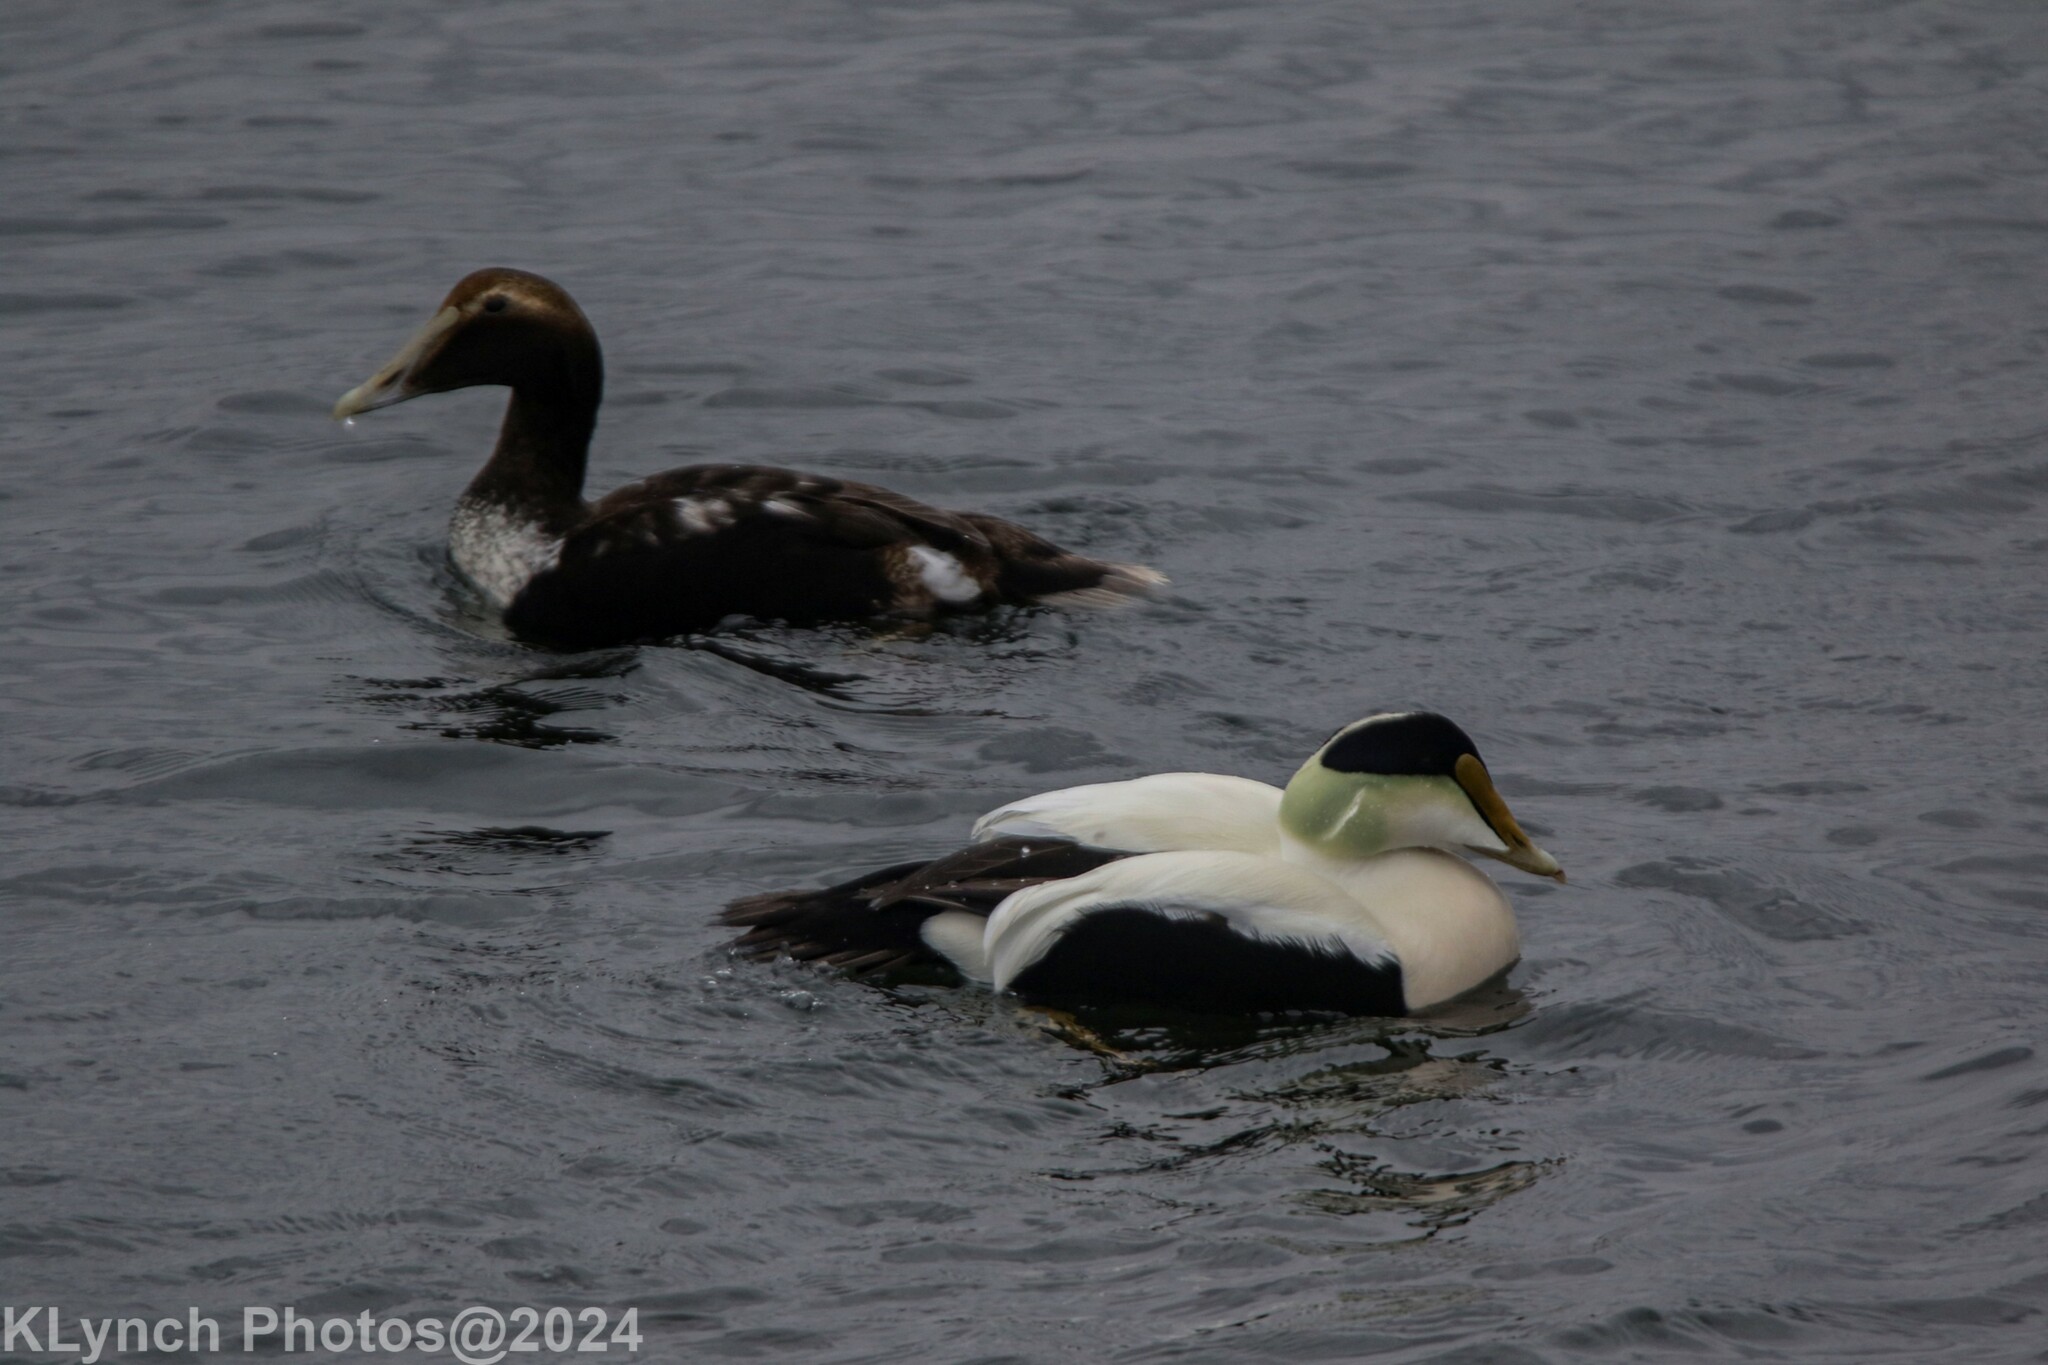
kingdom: Animalia
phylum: Chordata
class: Aves
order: Anseriformes
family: Anatidae
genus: Somateria
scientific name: Somateria mollissima
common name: Common eider
